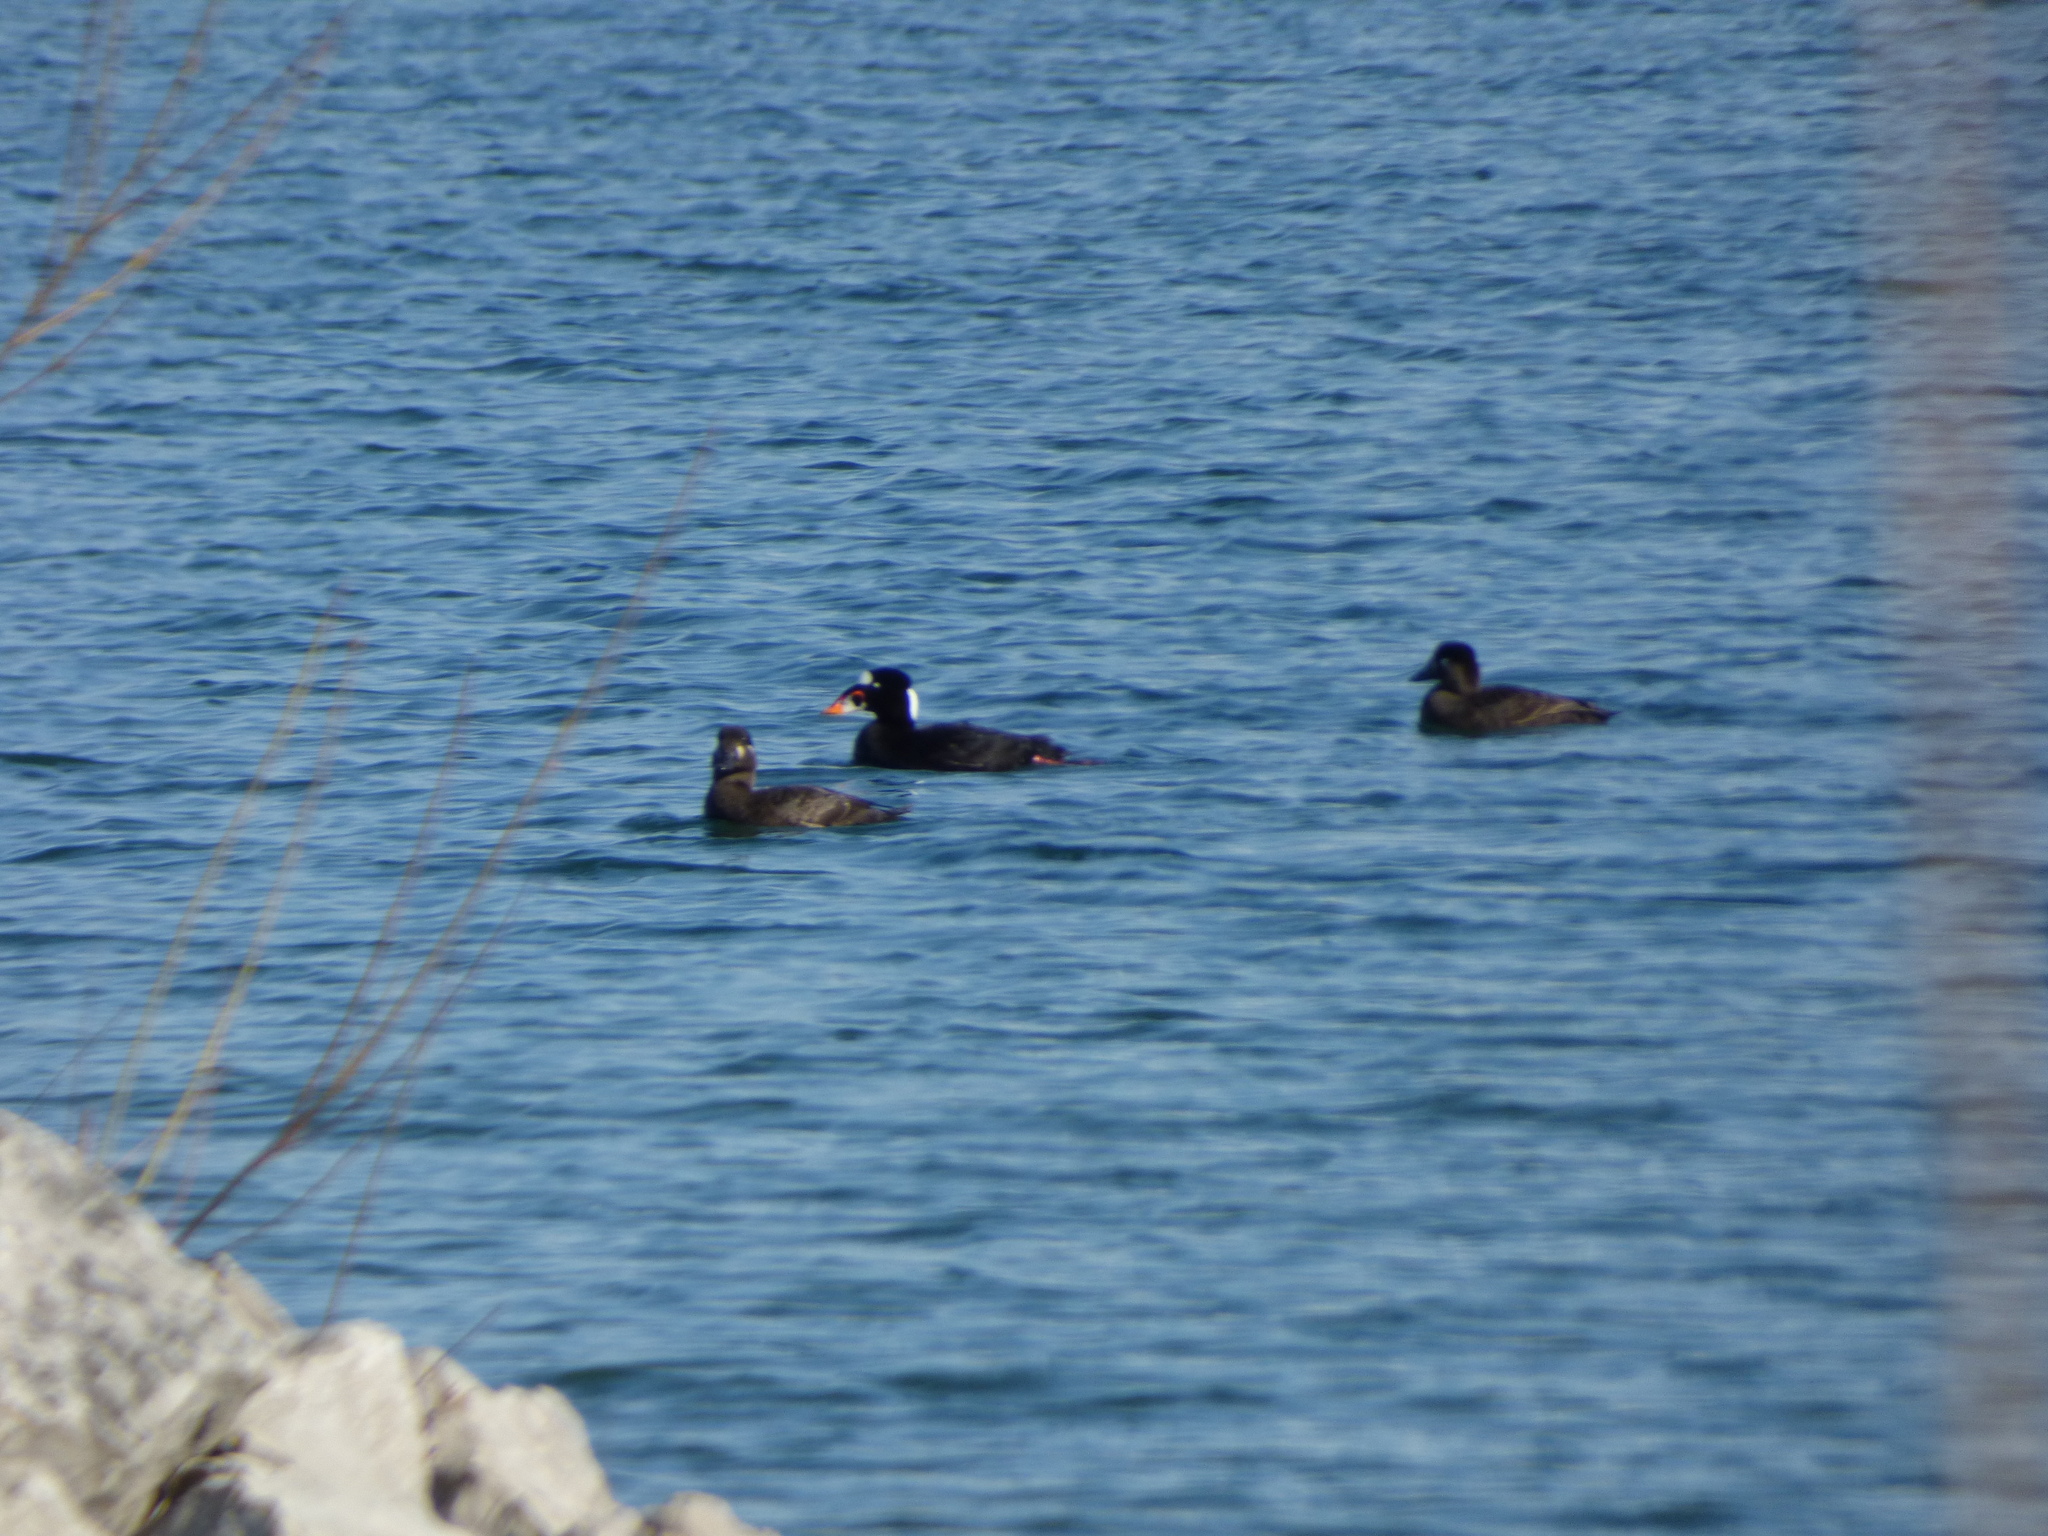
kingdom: Animalia
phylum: Chordata
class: Aves
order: Anseriformes
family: Anatidae
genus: Melanitta
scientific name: Melanitta perspicillata
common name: Surf scoter
